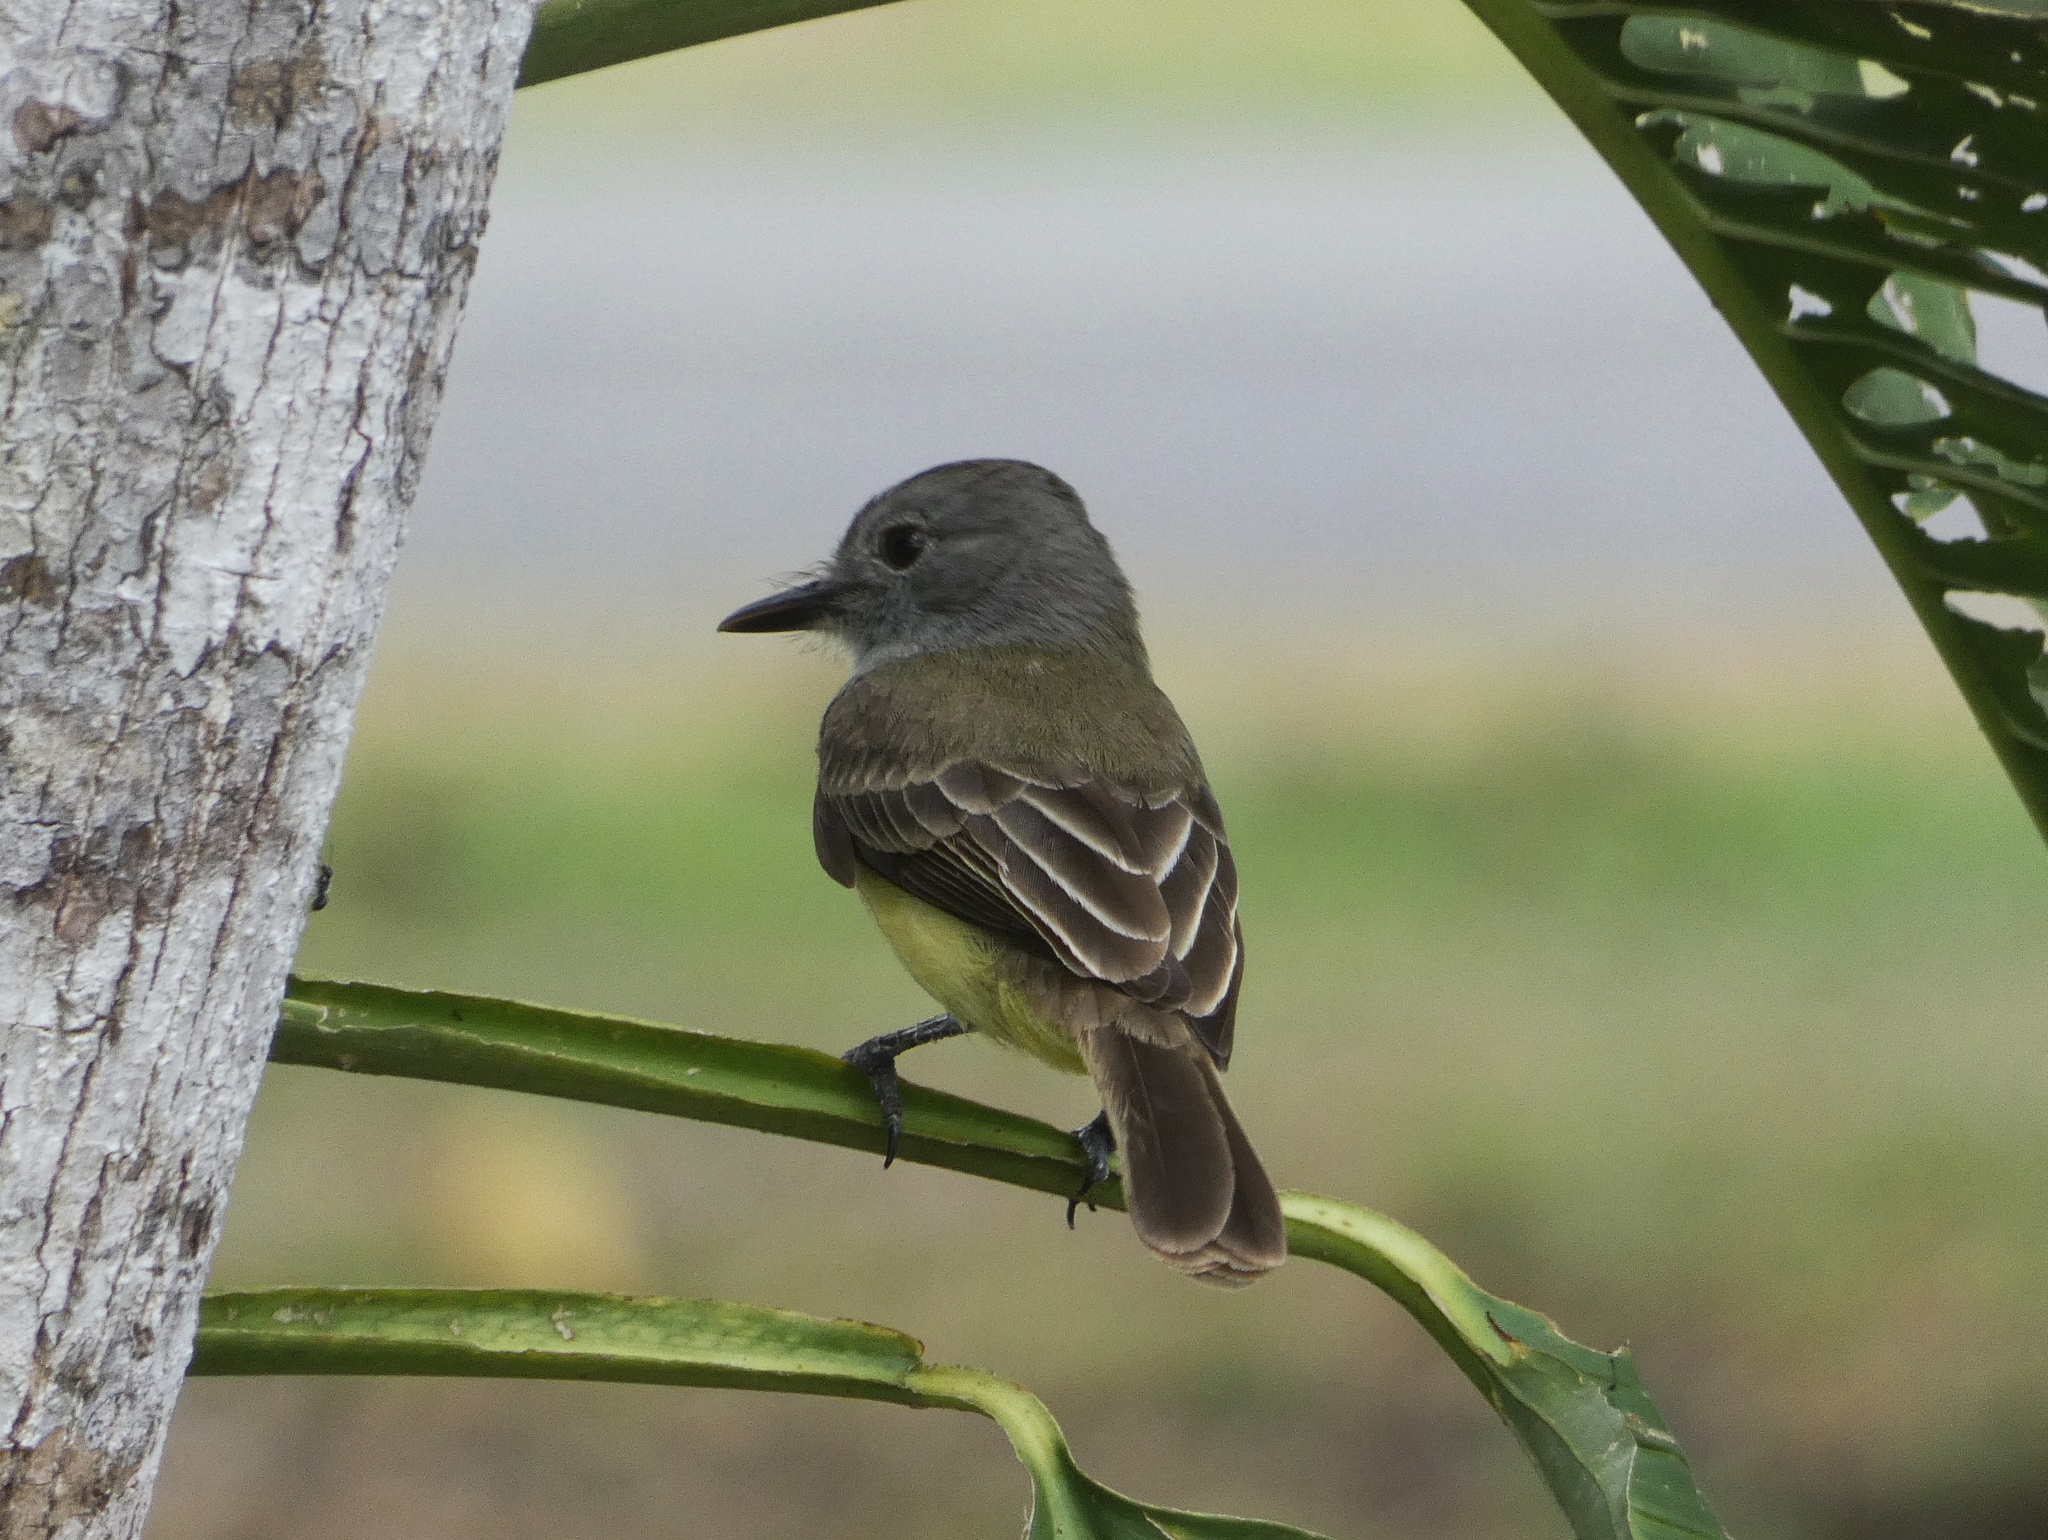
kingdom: Animalia
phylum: Chordata
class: Aves
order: Passeriformes
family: Tyrannidae
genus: Myiarchus
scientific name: Myiarchus panamensis
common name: Panama flycatcher
